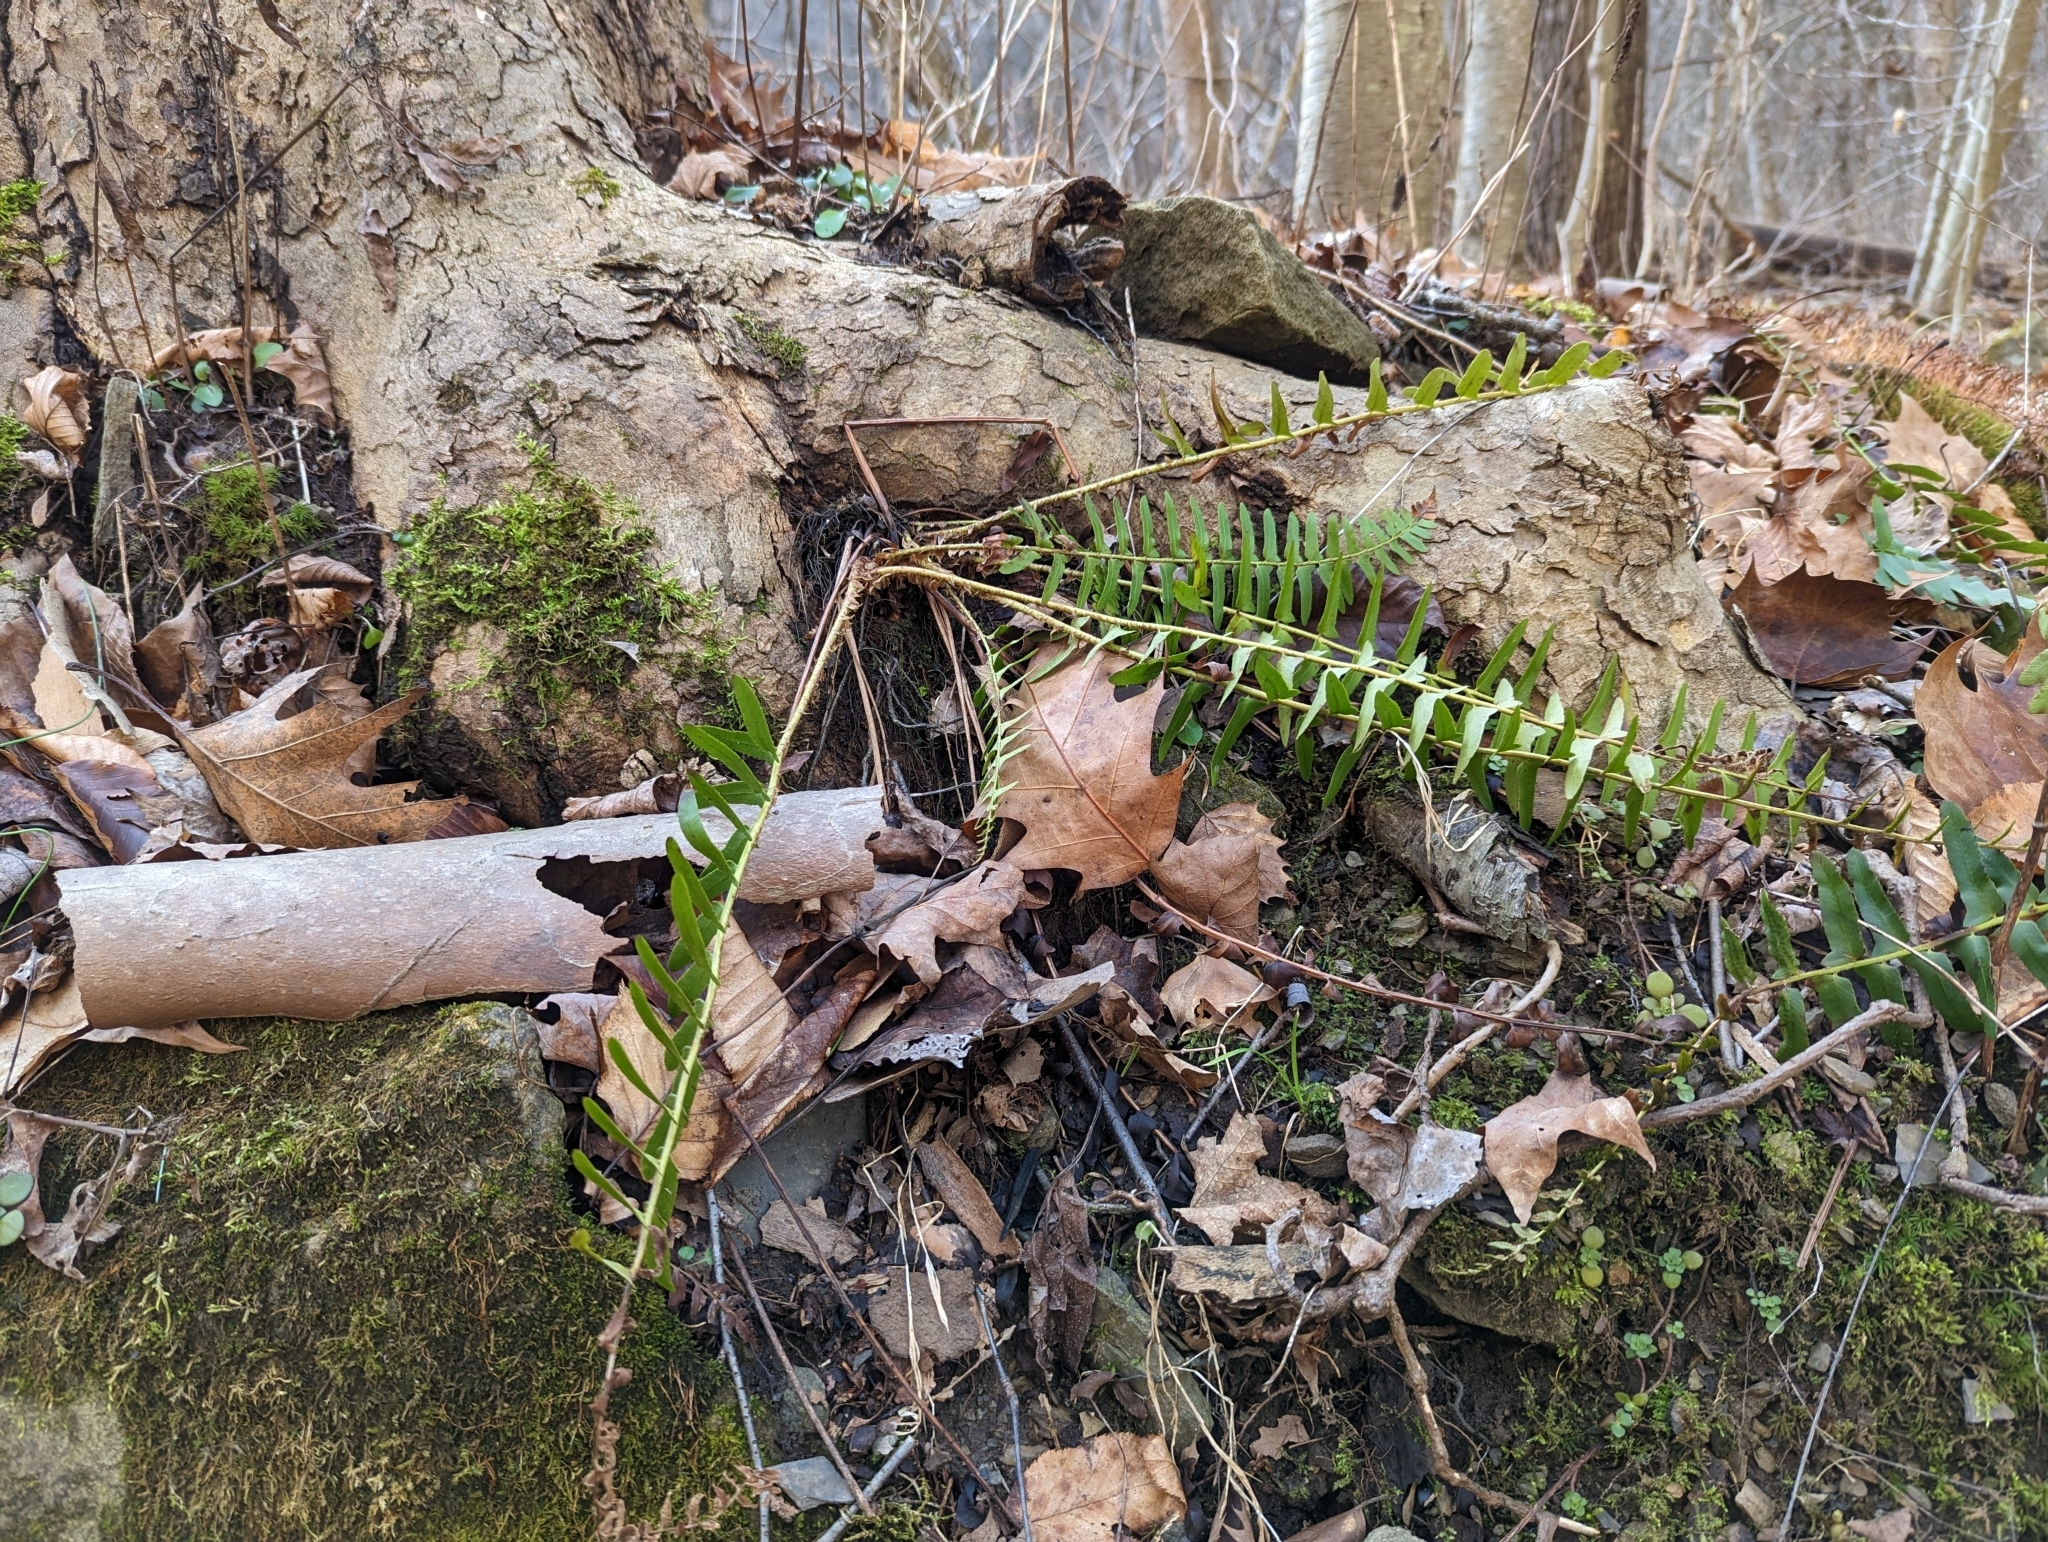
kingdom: Plantae
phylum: Tracheophyta
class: Polypodiopsida
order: Polypodiales
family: Dryopteridaceae
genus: Polystichum
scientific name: Polystichum acrostichoides
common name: Christmas fern
